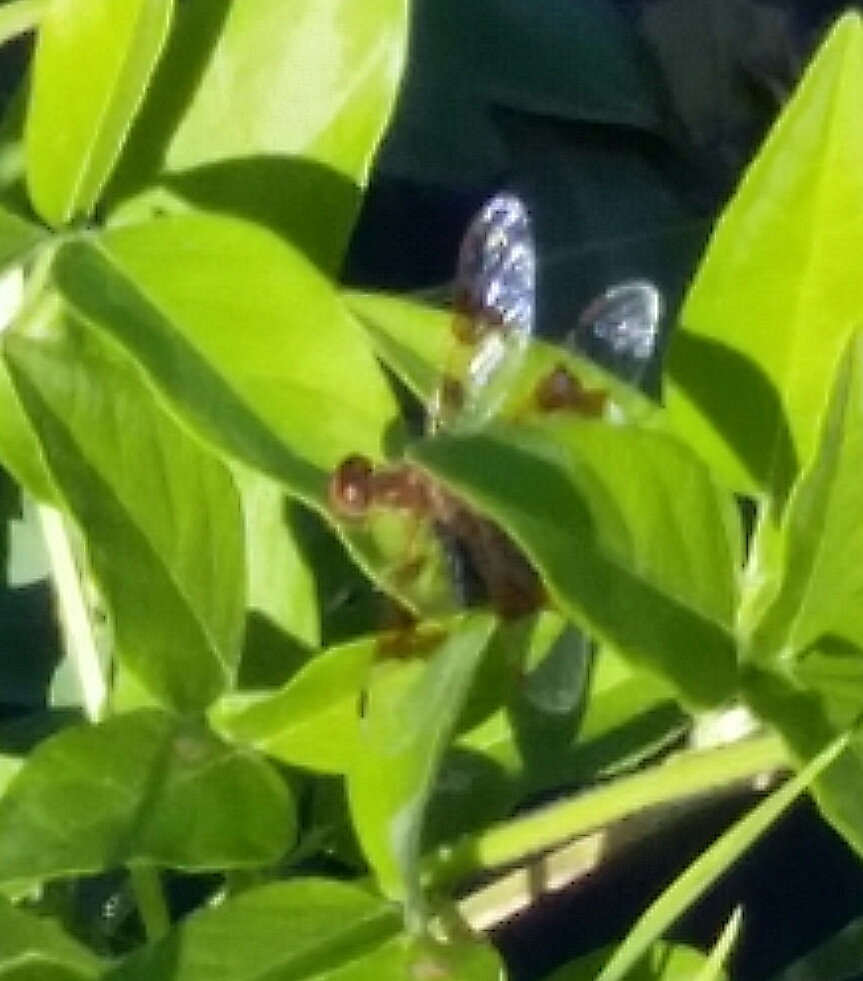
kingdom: Animalia
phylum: Arthropoda
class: Insecta
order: Odonata
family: Libellulidae
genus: Perithemis
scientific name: Perithemis tenera
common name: Eastern amberwing
